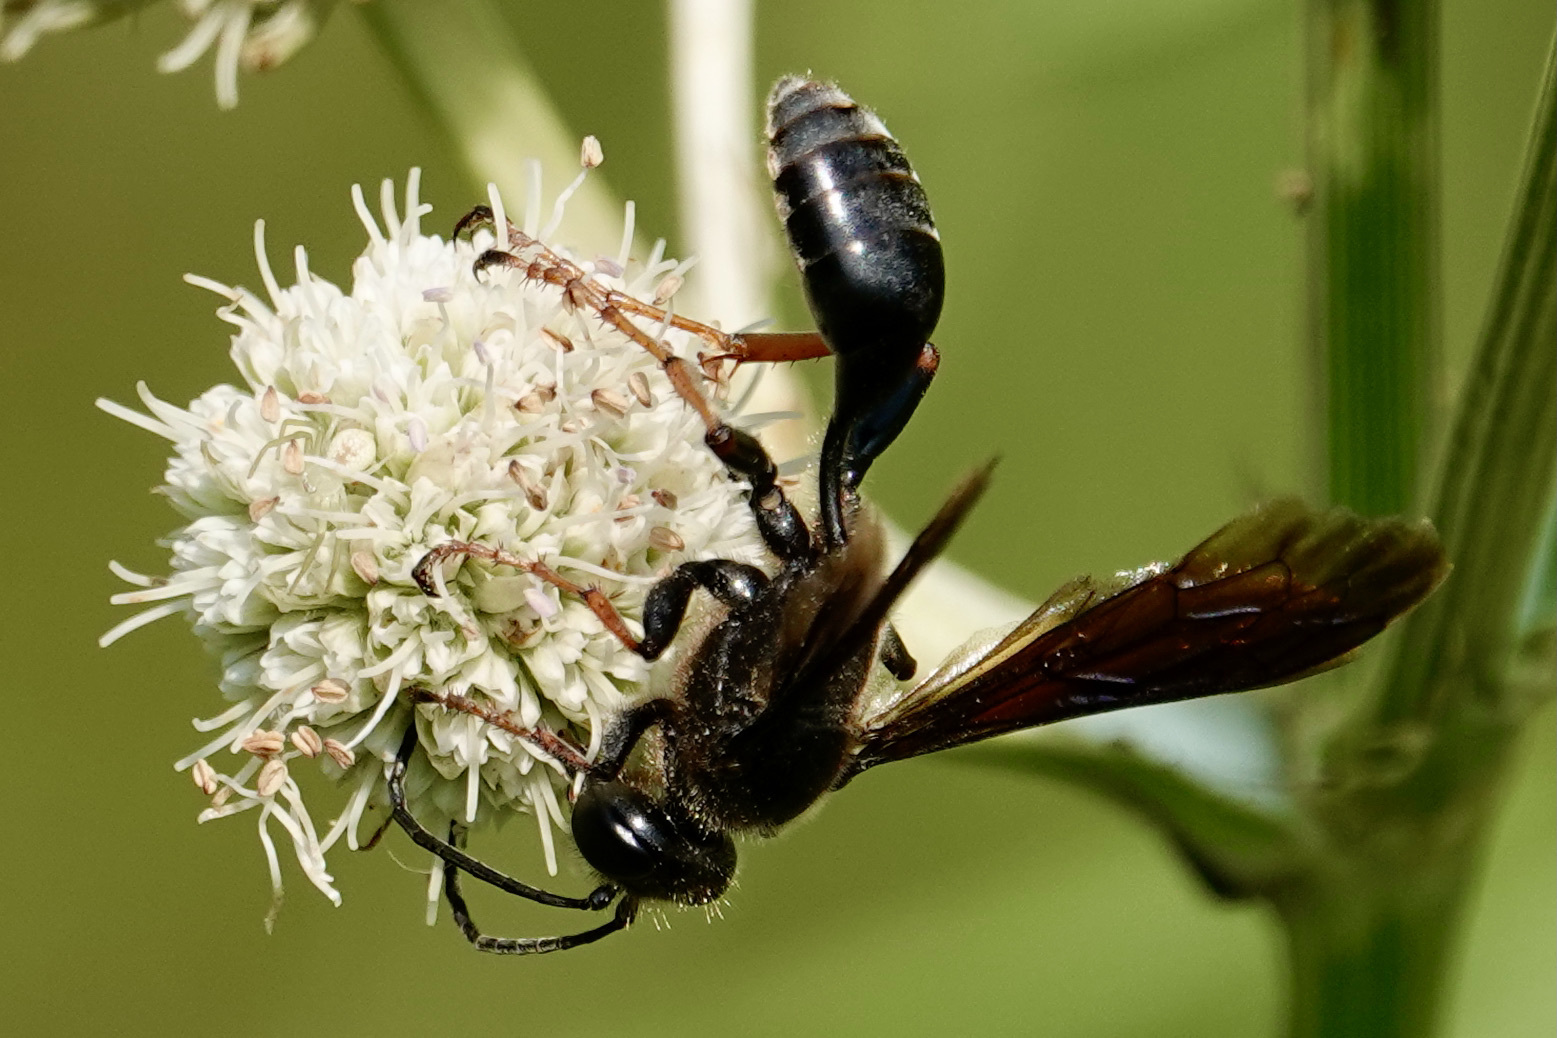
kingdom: Animalia
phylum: Arthropoda
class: Insecta
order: Hymenoptera
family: Sphecidae
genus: Isodontia
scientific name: Isodontia auripes
